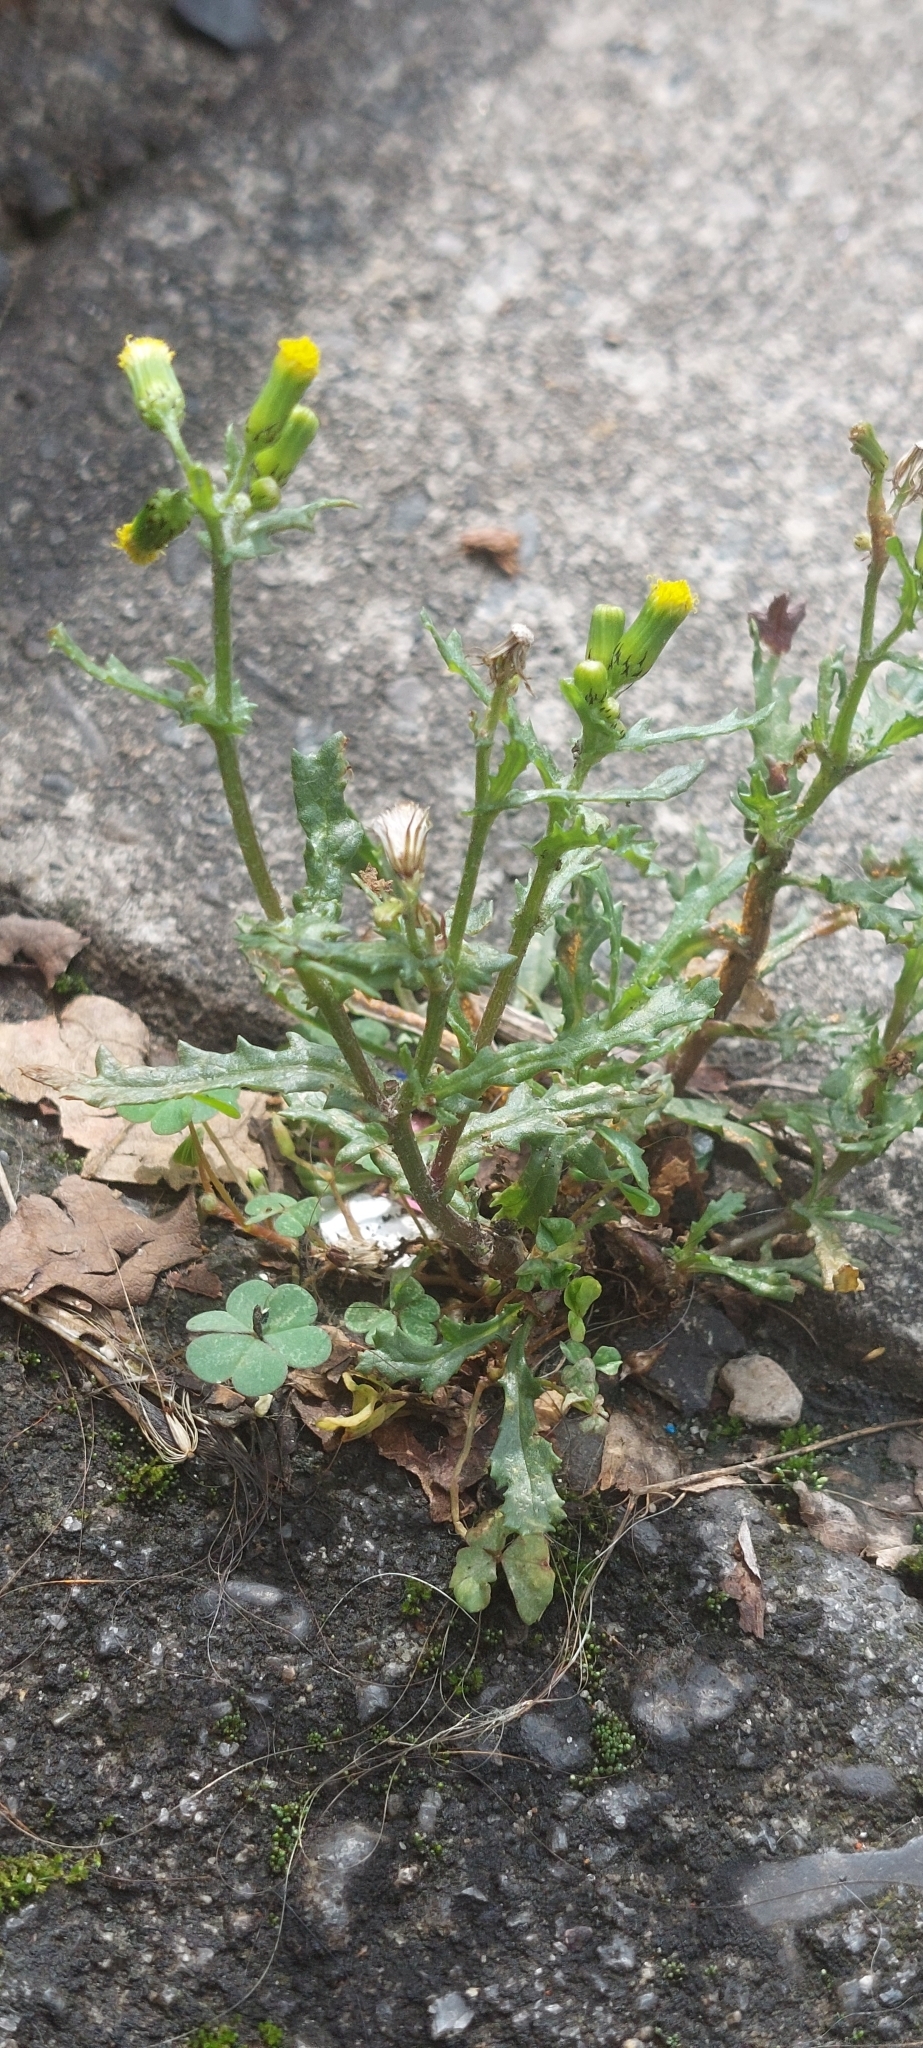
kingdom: Plantae
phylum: Tracheophyta
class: Magnoliopsida
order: Asterales
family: Asteraceae
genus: Senecio
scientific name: Senecio vulgaris
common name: Old-man-in-the-spring
